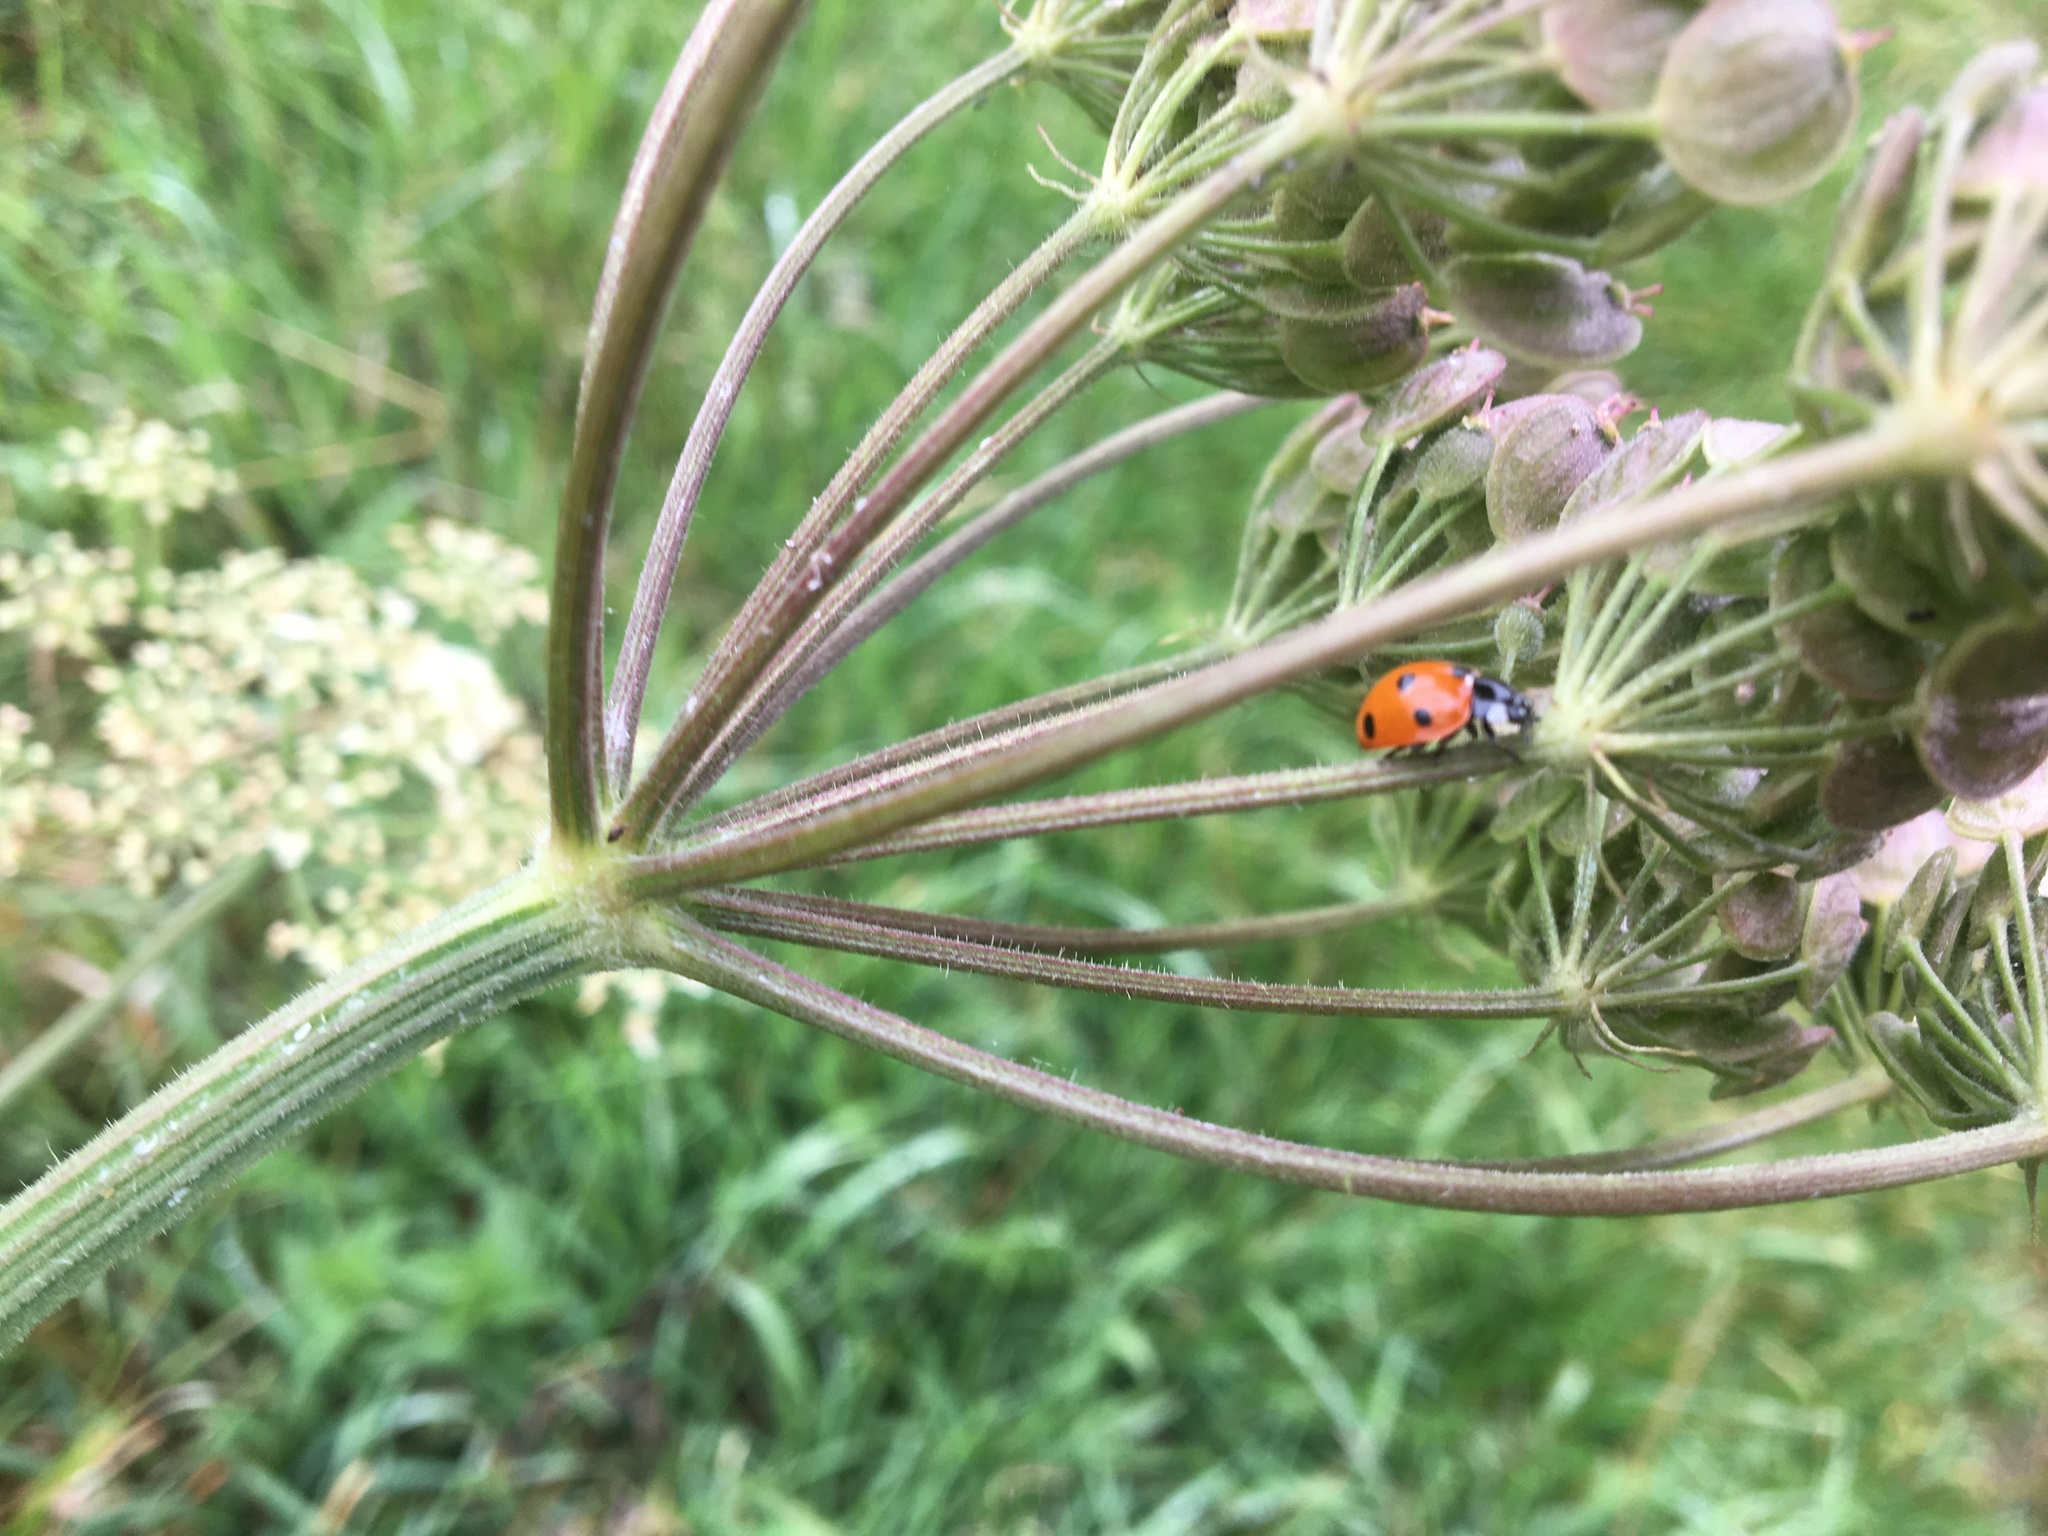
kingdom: Animalia
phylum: Arthropoda
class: Insecta
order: Coleoptera
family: Coccinellidae
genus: Coccinella
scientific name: Coccinella septempunctata
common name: Sevenspotted lady beetle
